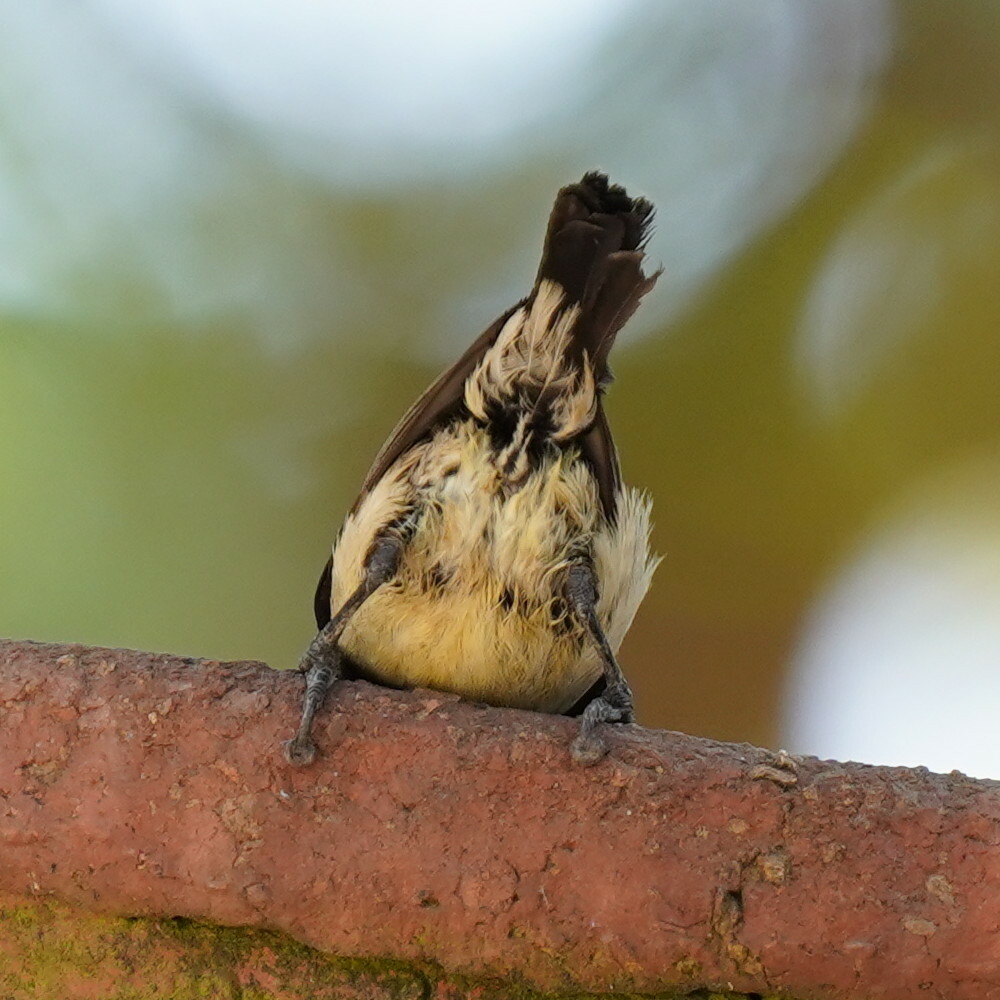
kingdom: Animalia
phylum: Chordata
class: Aves
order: Passeriformes
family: Nectariniidae
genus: Cinnyris
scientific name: Cinnyris venustus
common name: Variable sunbird
